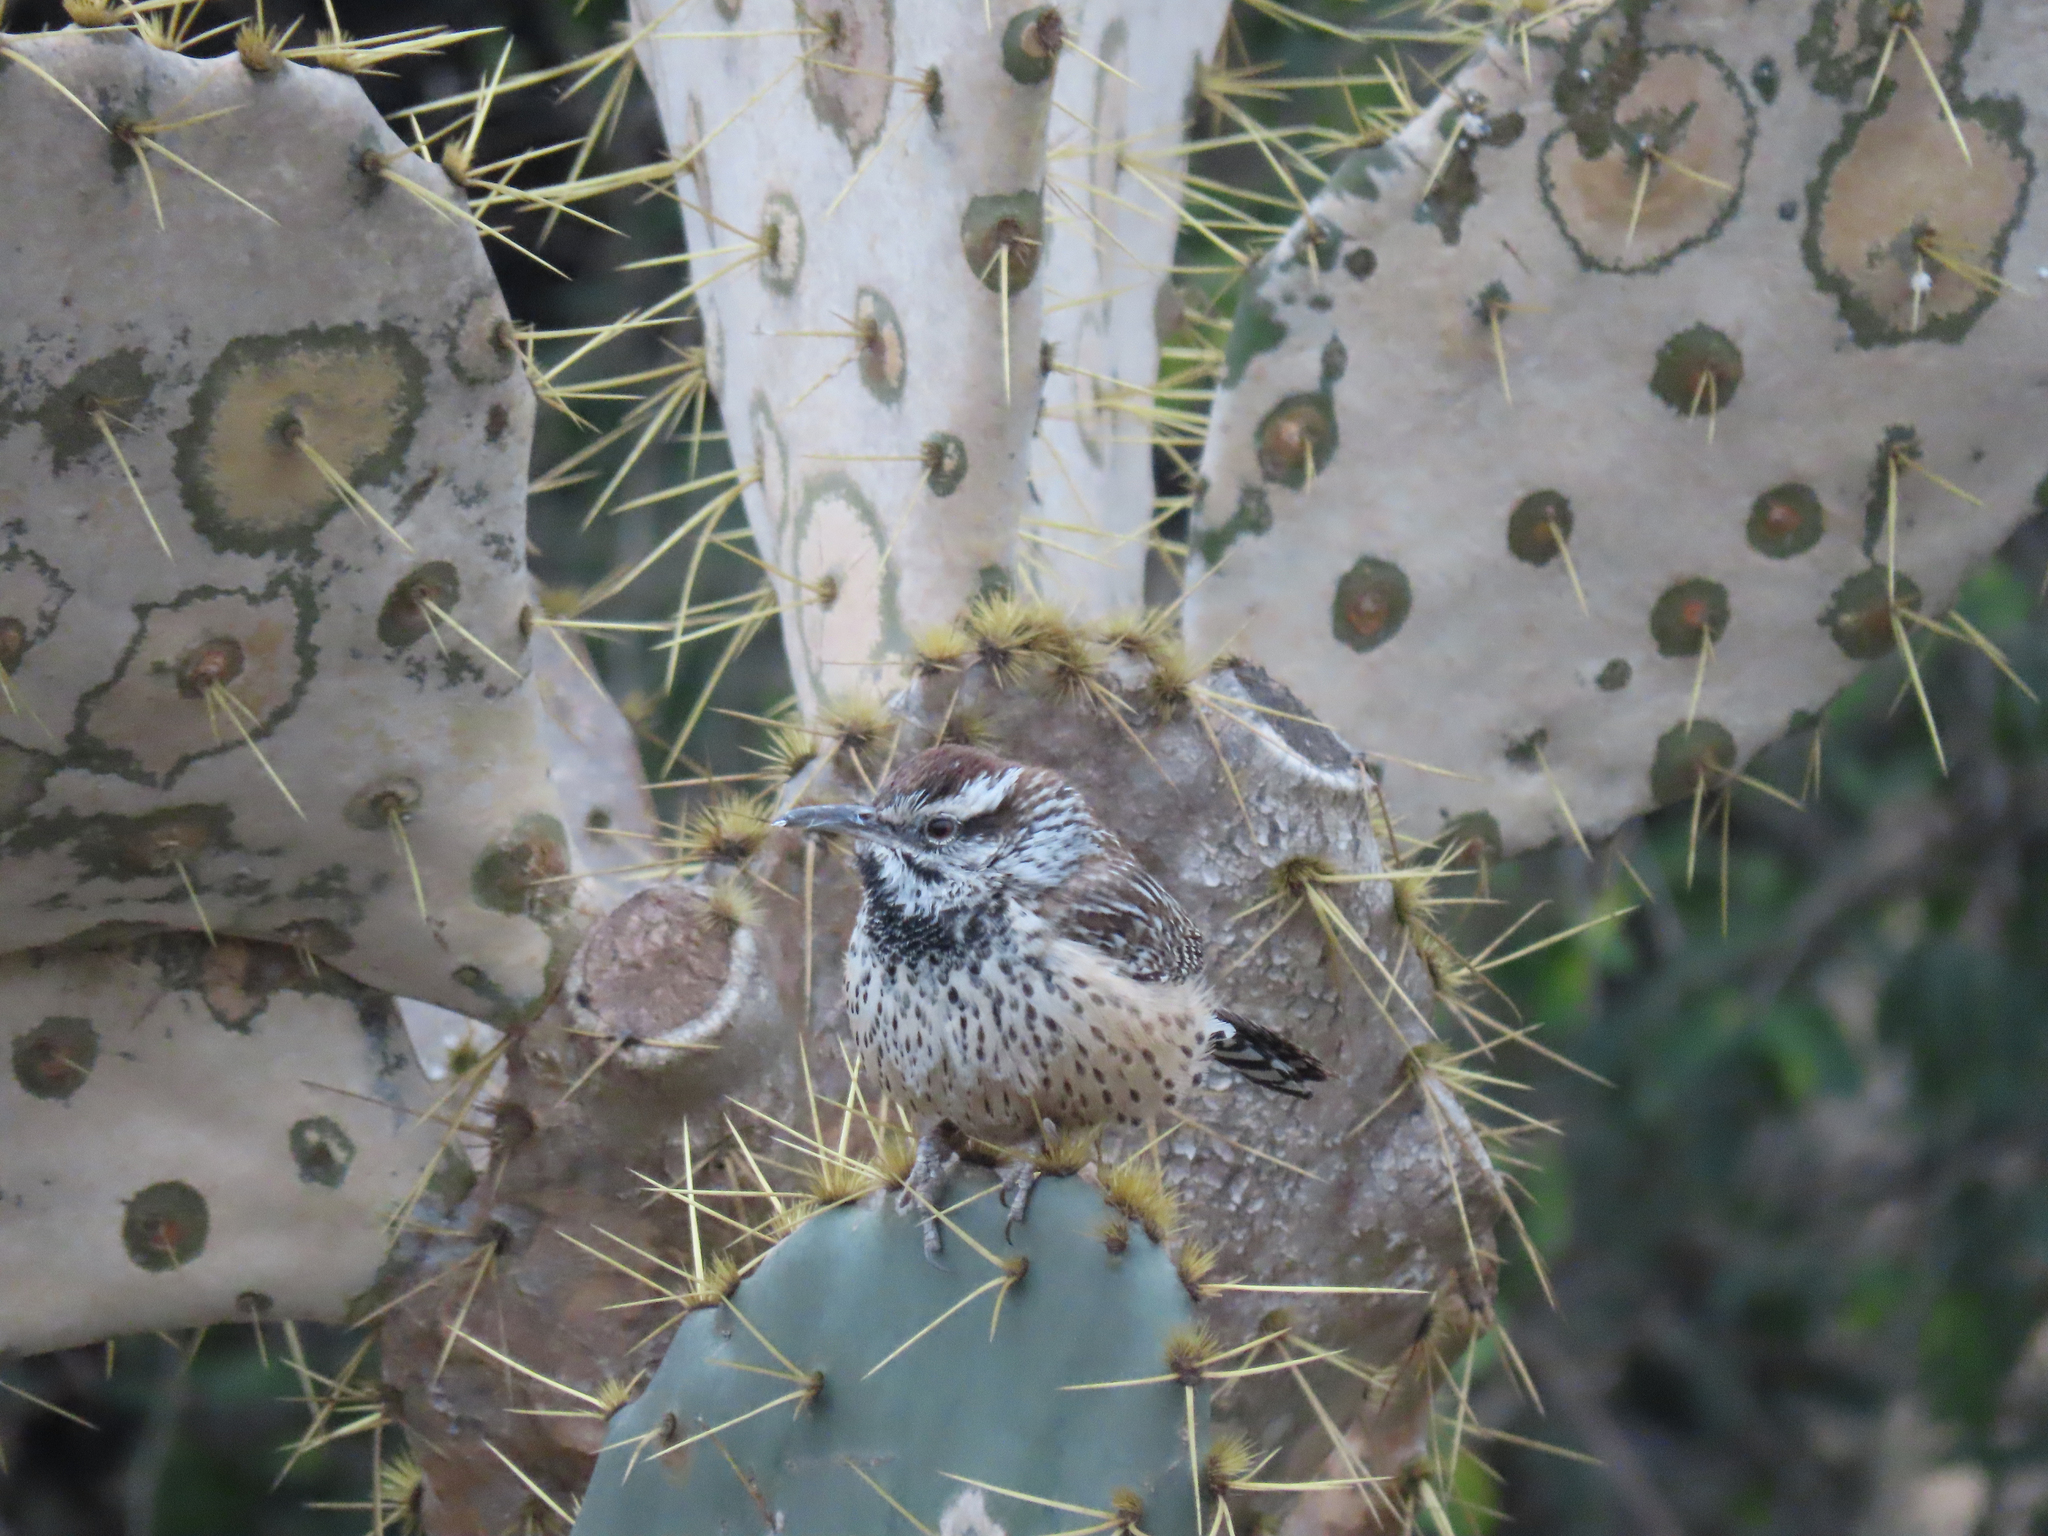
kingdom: Animalia
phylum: Chordata
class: Aves
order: Passeriformes
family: Troglodytidae
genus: Campylorhynchus
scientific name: Campylorhynchus brunneicapillus
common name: Cactus wren
